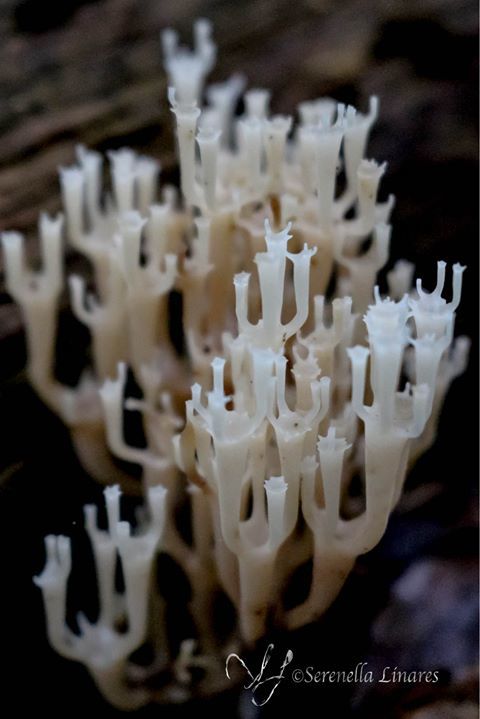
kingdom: Fungi
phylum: Basidiomycota
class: Agaricomycetes
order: Russulales
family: Auriscalpiaceae
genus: Artomyces
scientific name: Artomyces pyxidatus
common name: Crown-tipped coral fungus
